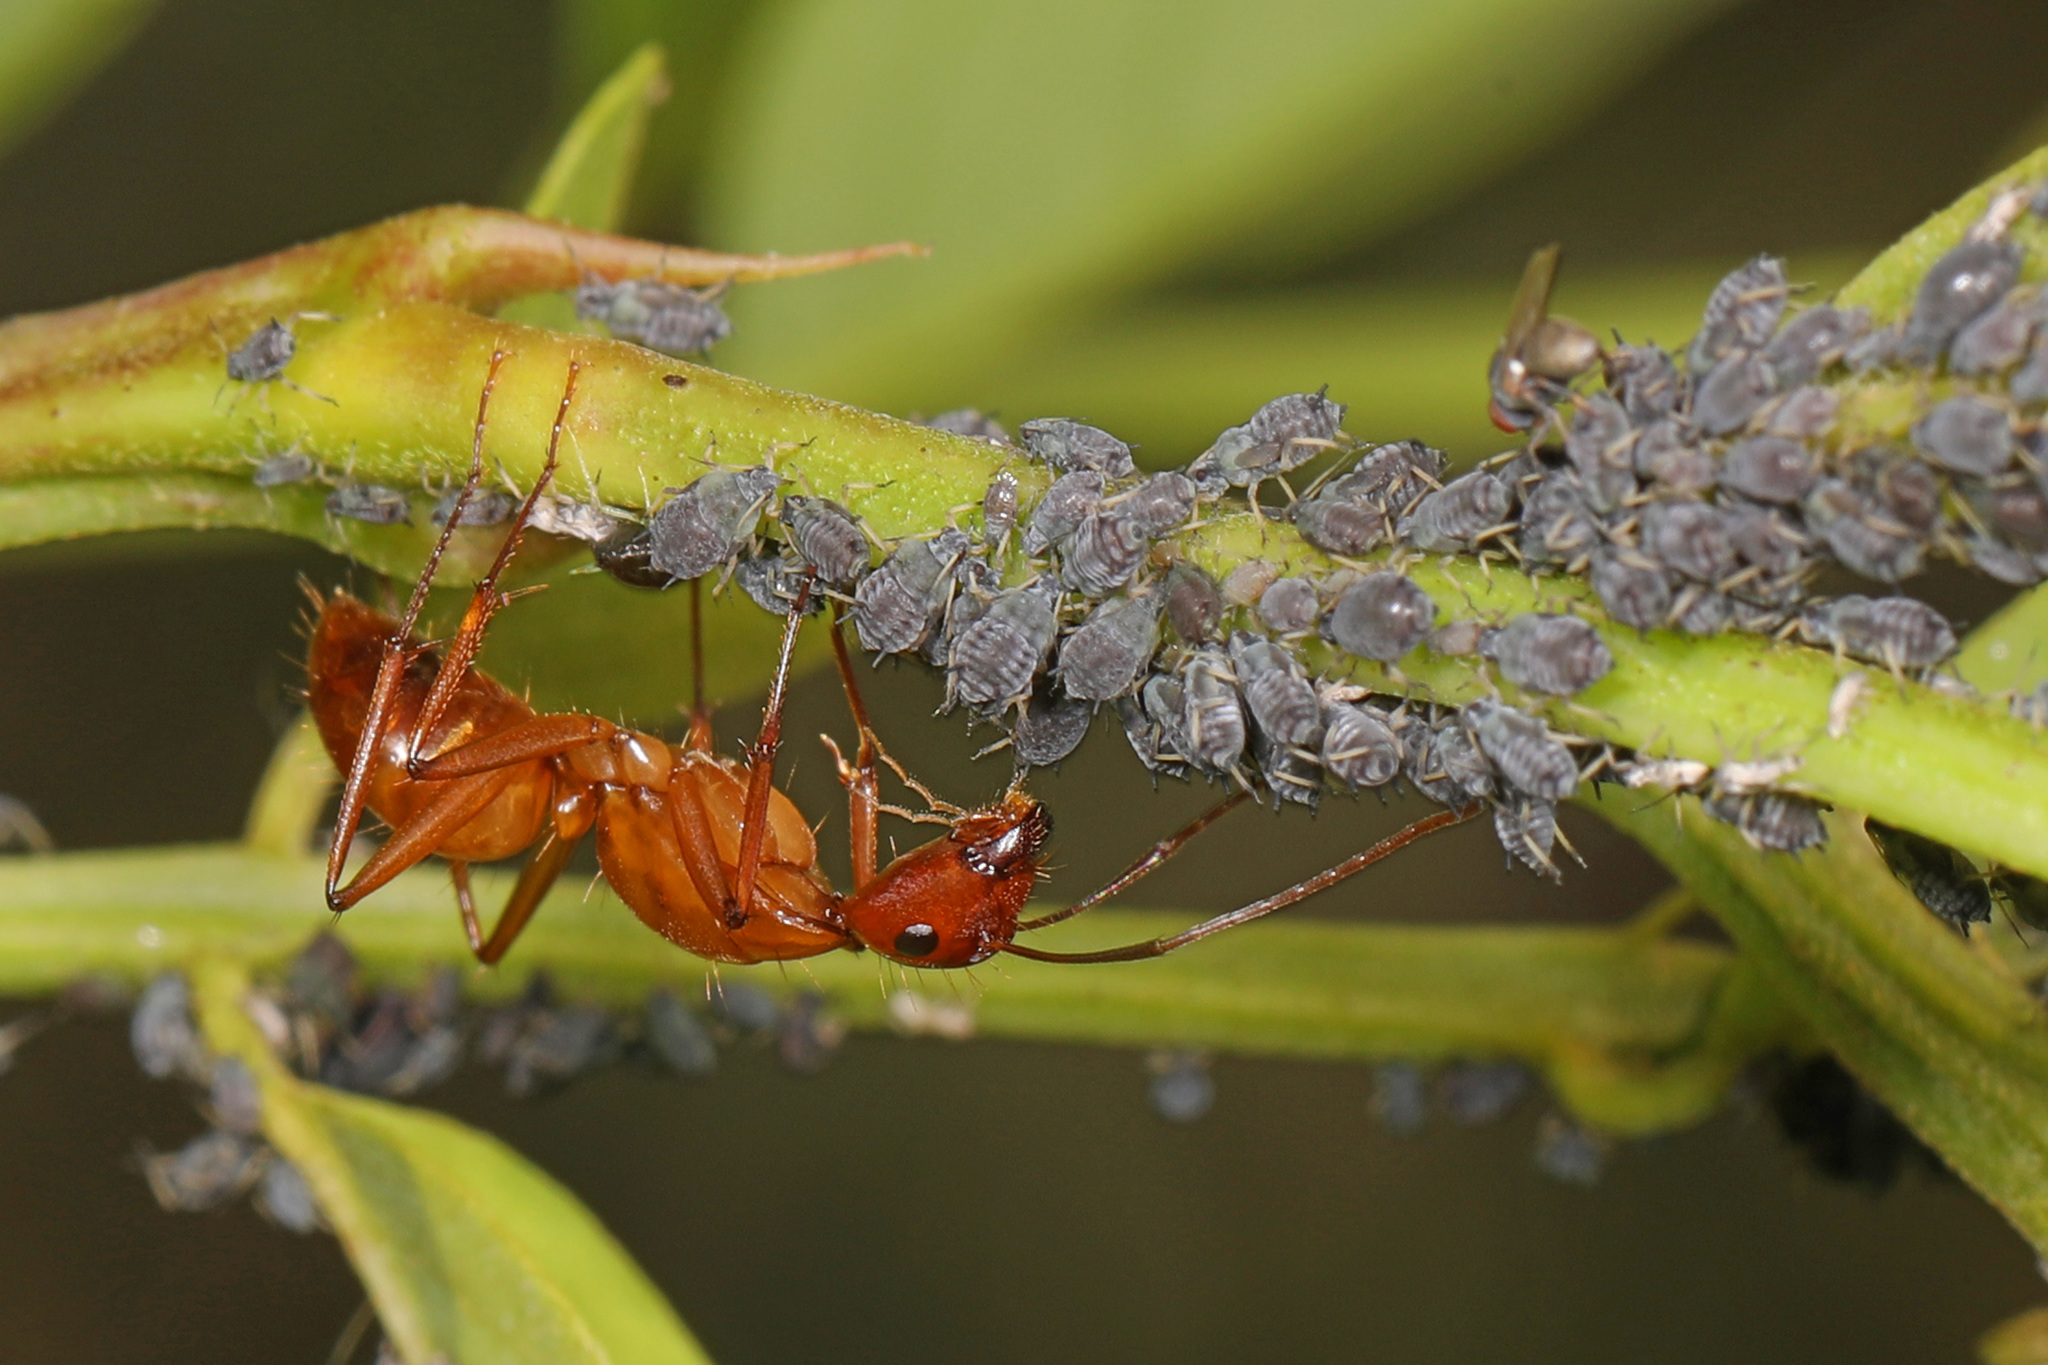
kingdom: Animalia
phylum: Arthropoda
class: Insecta
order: Hymenoptera
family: Formicidae
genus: Camponotus
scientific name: Camponotus castaneus
